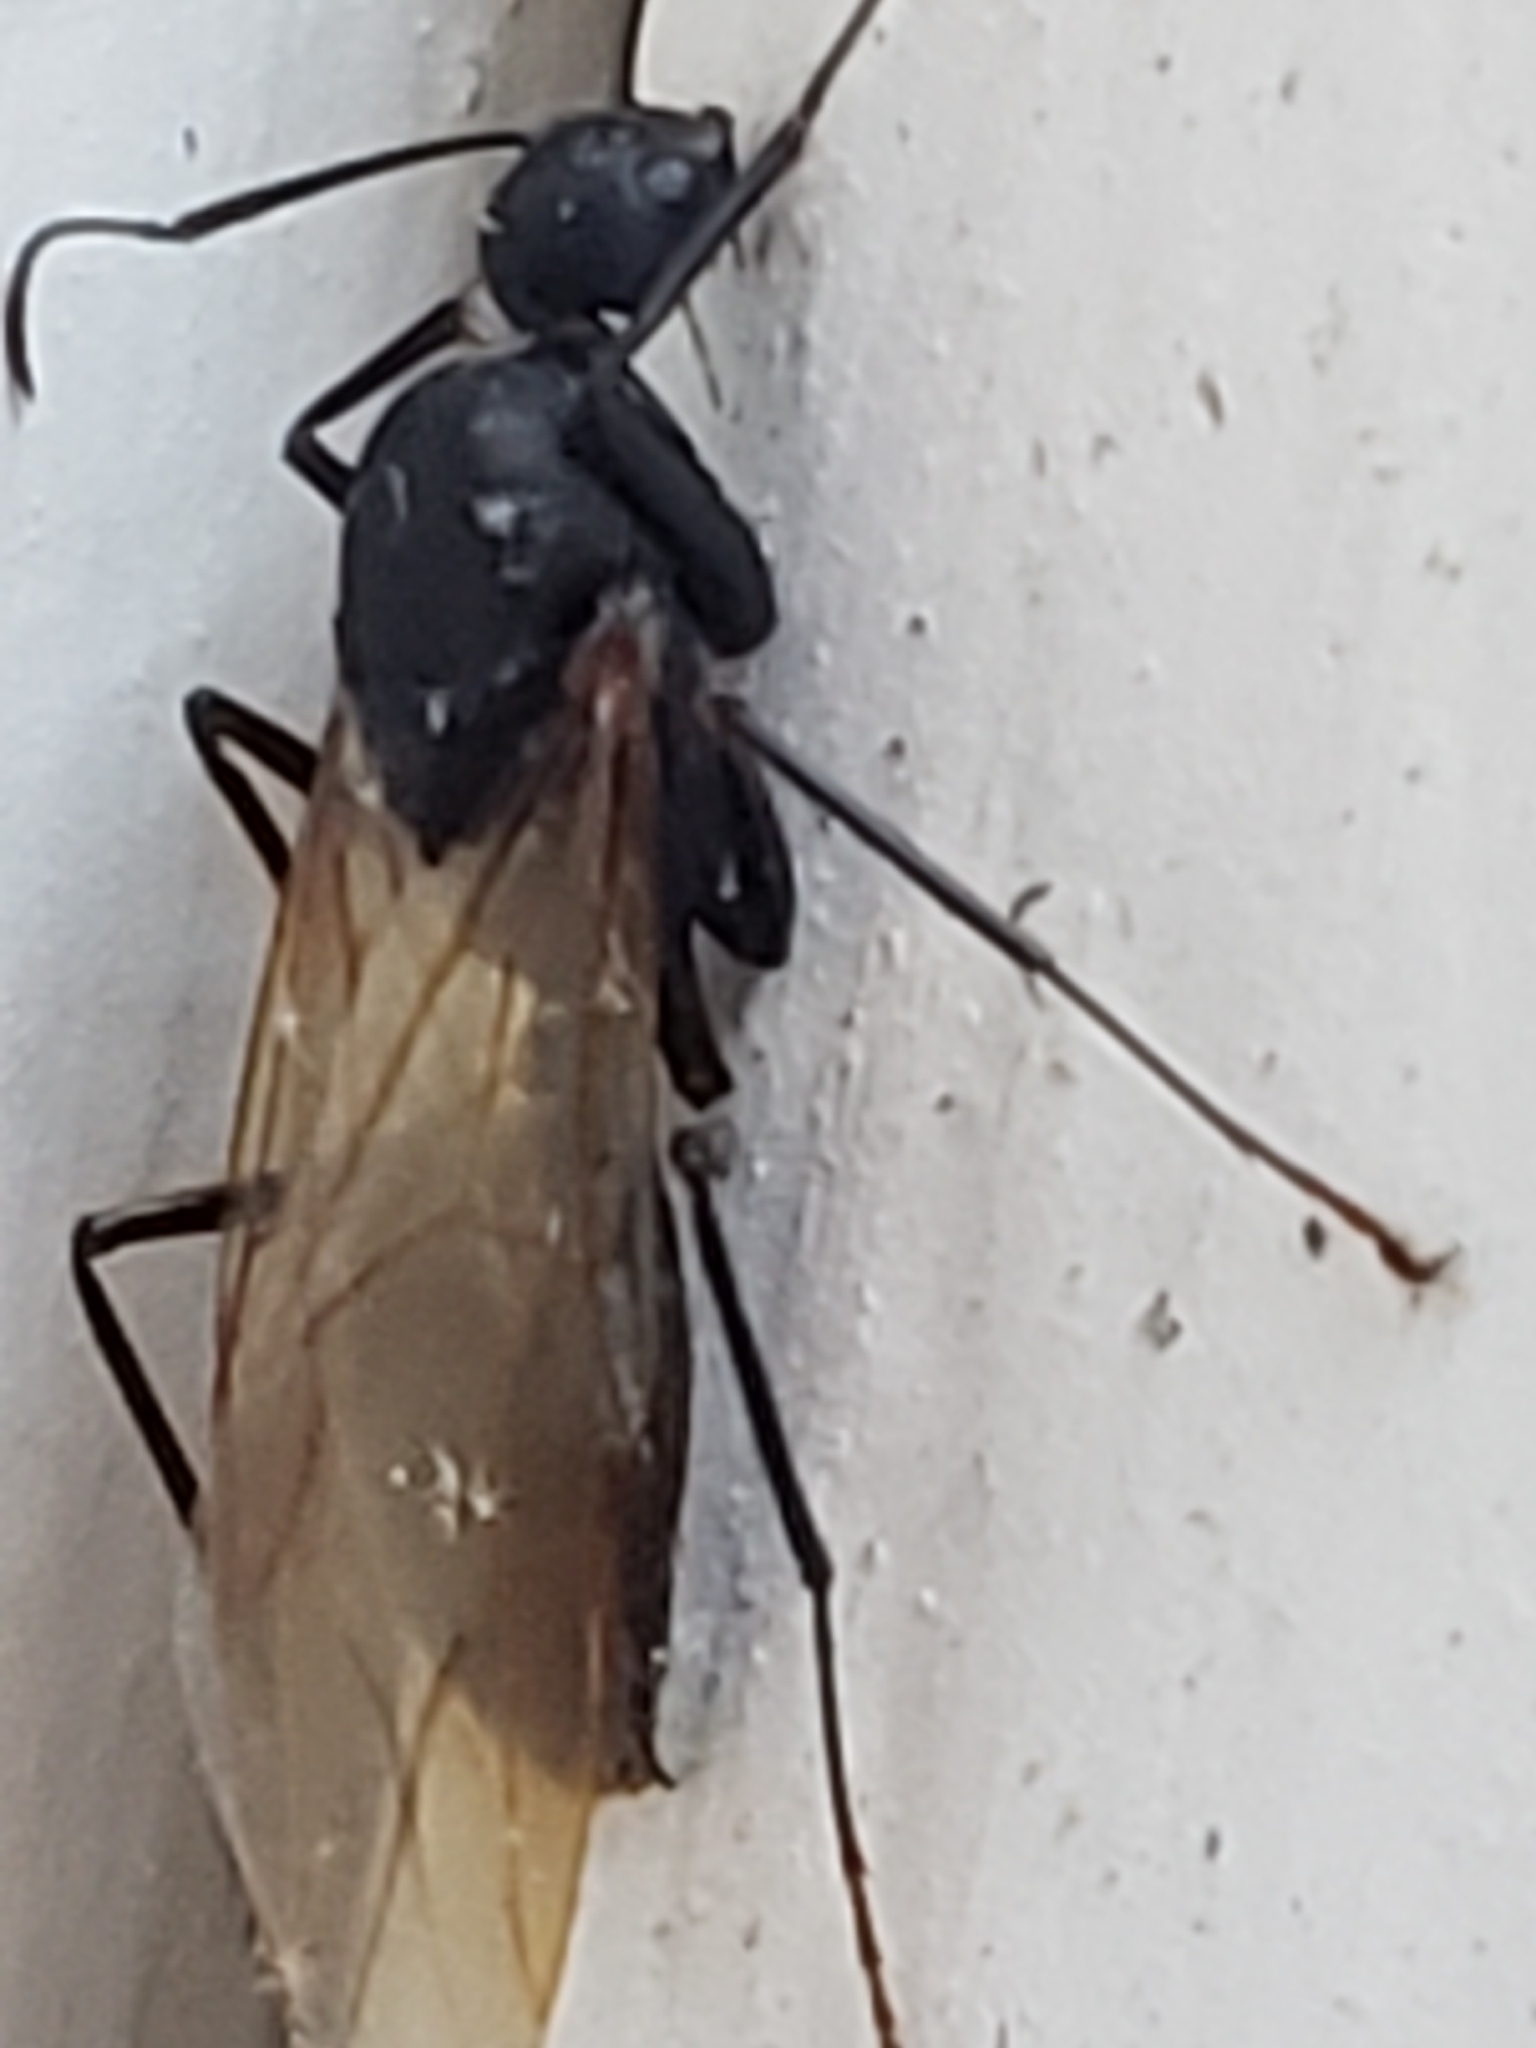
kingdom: Animalia
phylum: Arthropoda
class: Insecta
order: Hymenoptera
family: Formicidae
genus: Camponotus
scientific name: Camponotus pennsylvanicus
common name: Black carpenter ant
